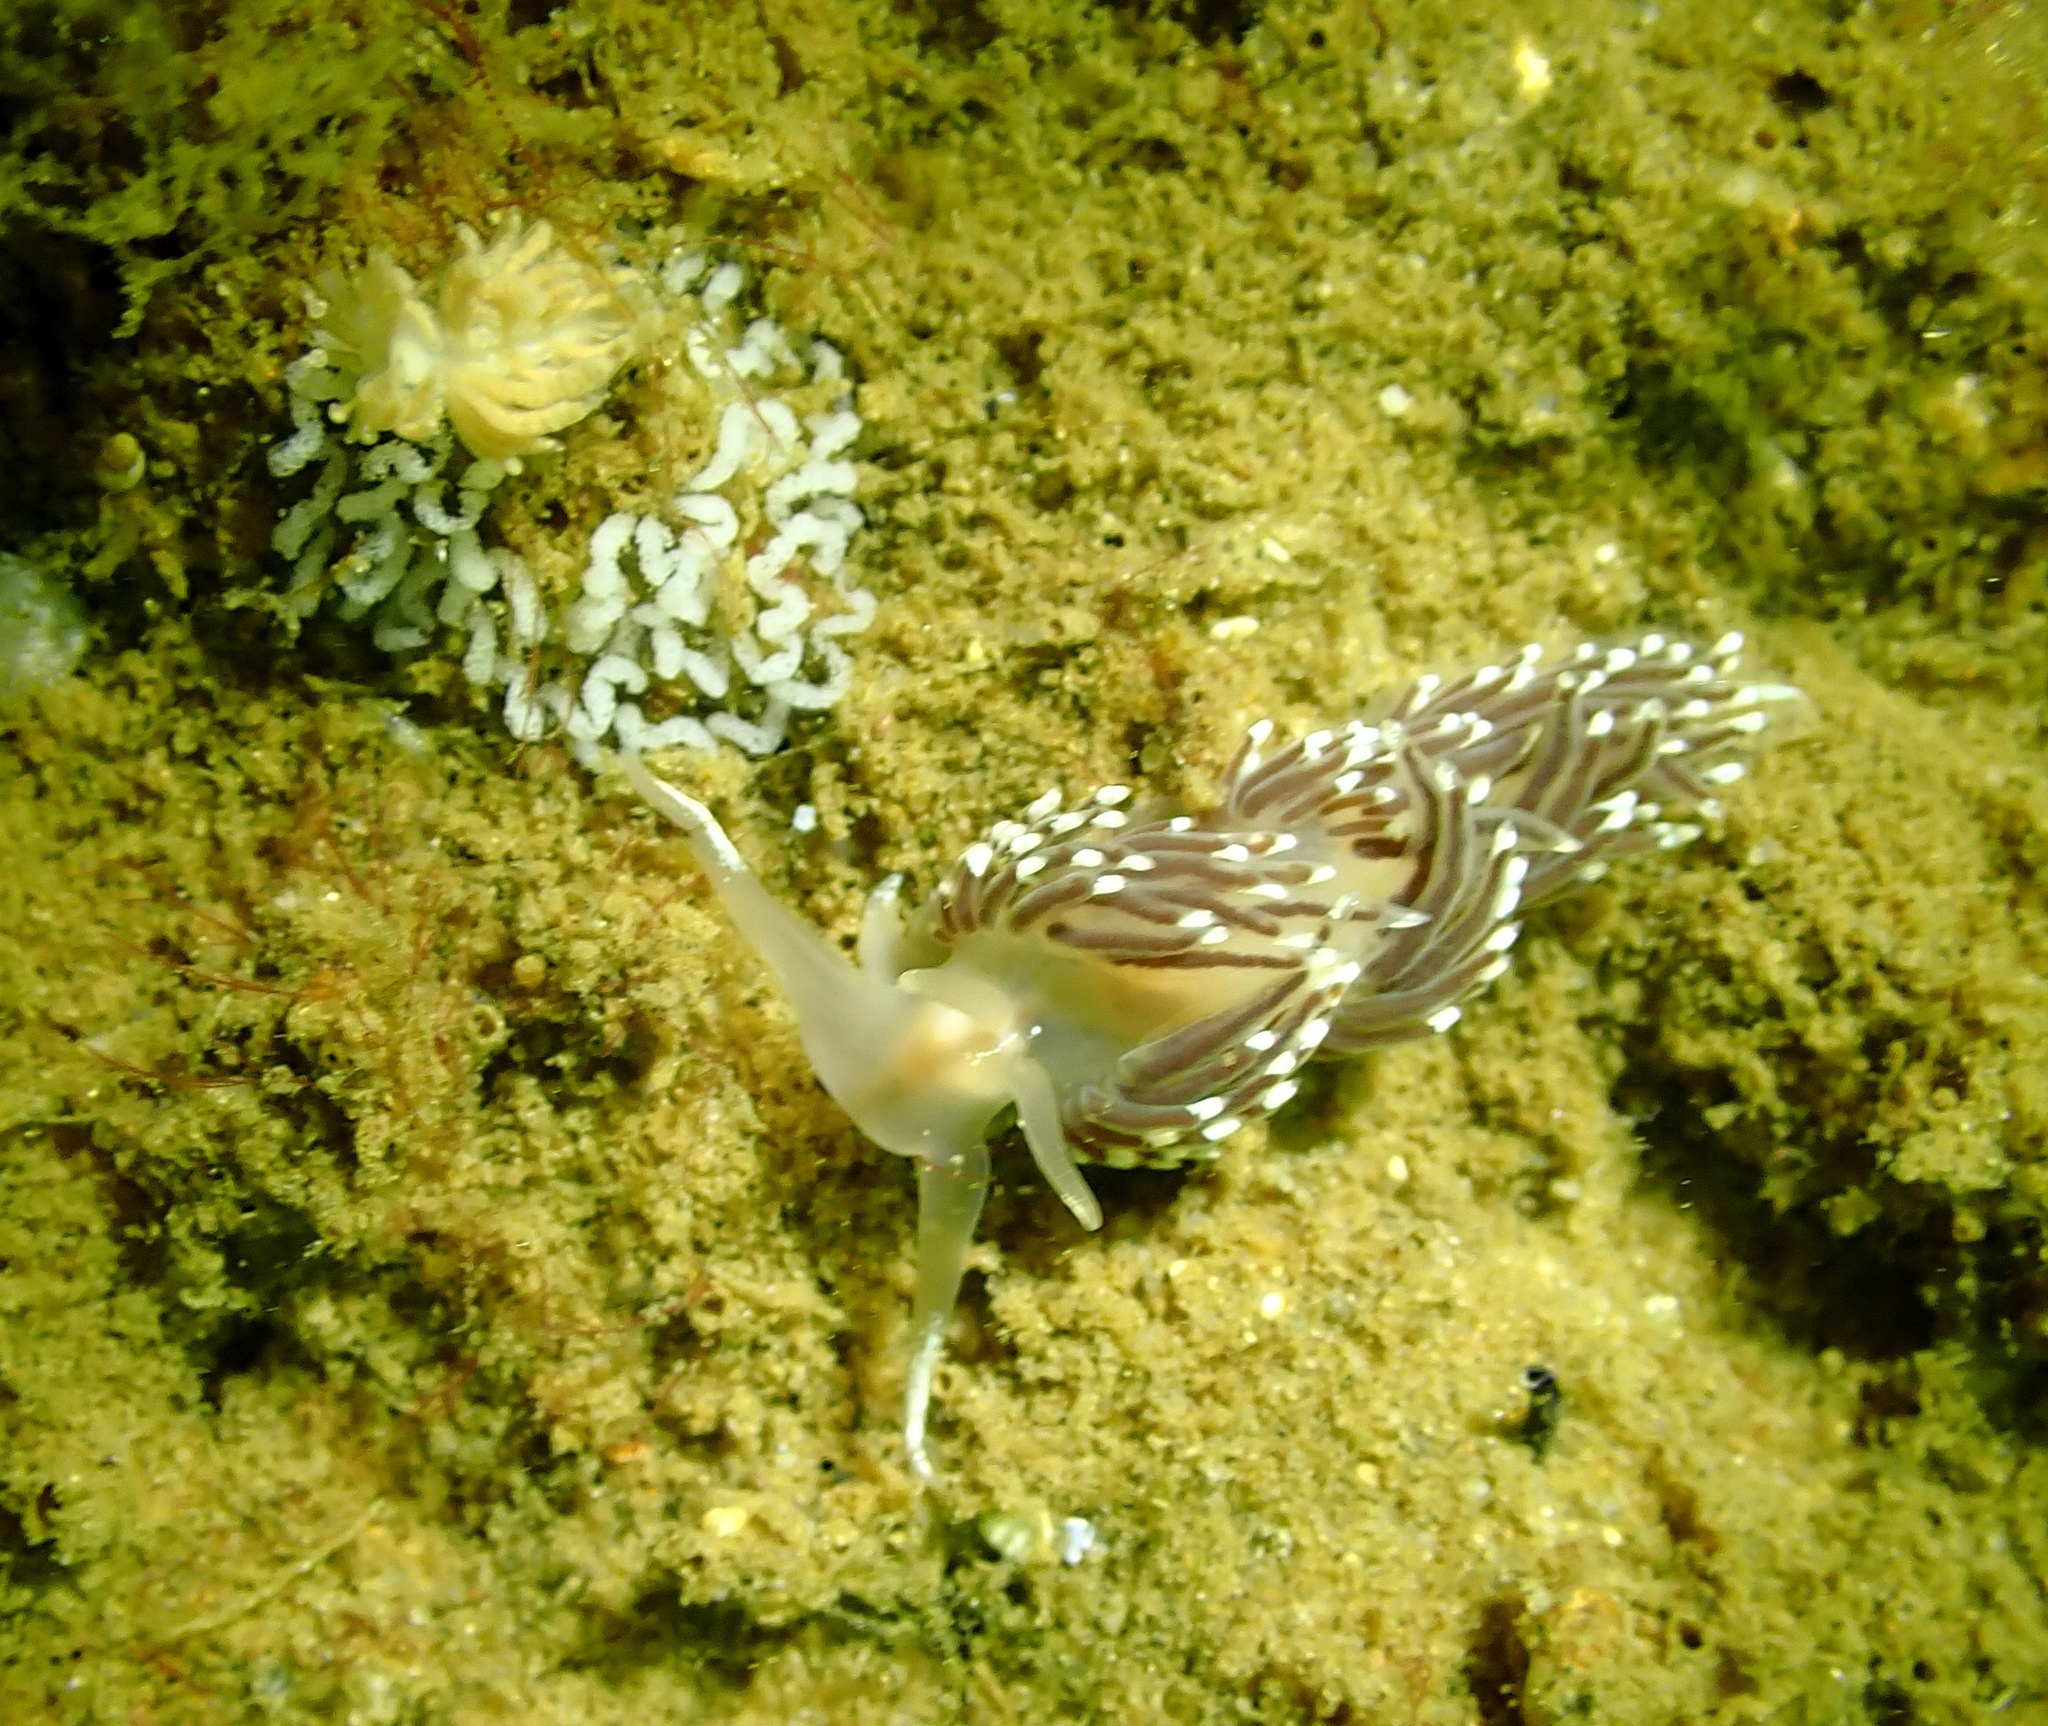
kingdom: Animalia
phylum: Mollusca
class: Gastropoda
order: Nudibranchia
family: Facelinidae
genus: Favorinus
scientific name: Favorinus branchialis
